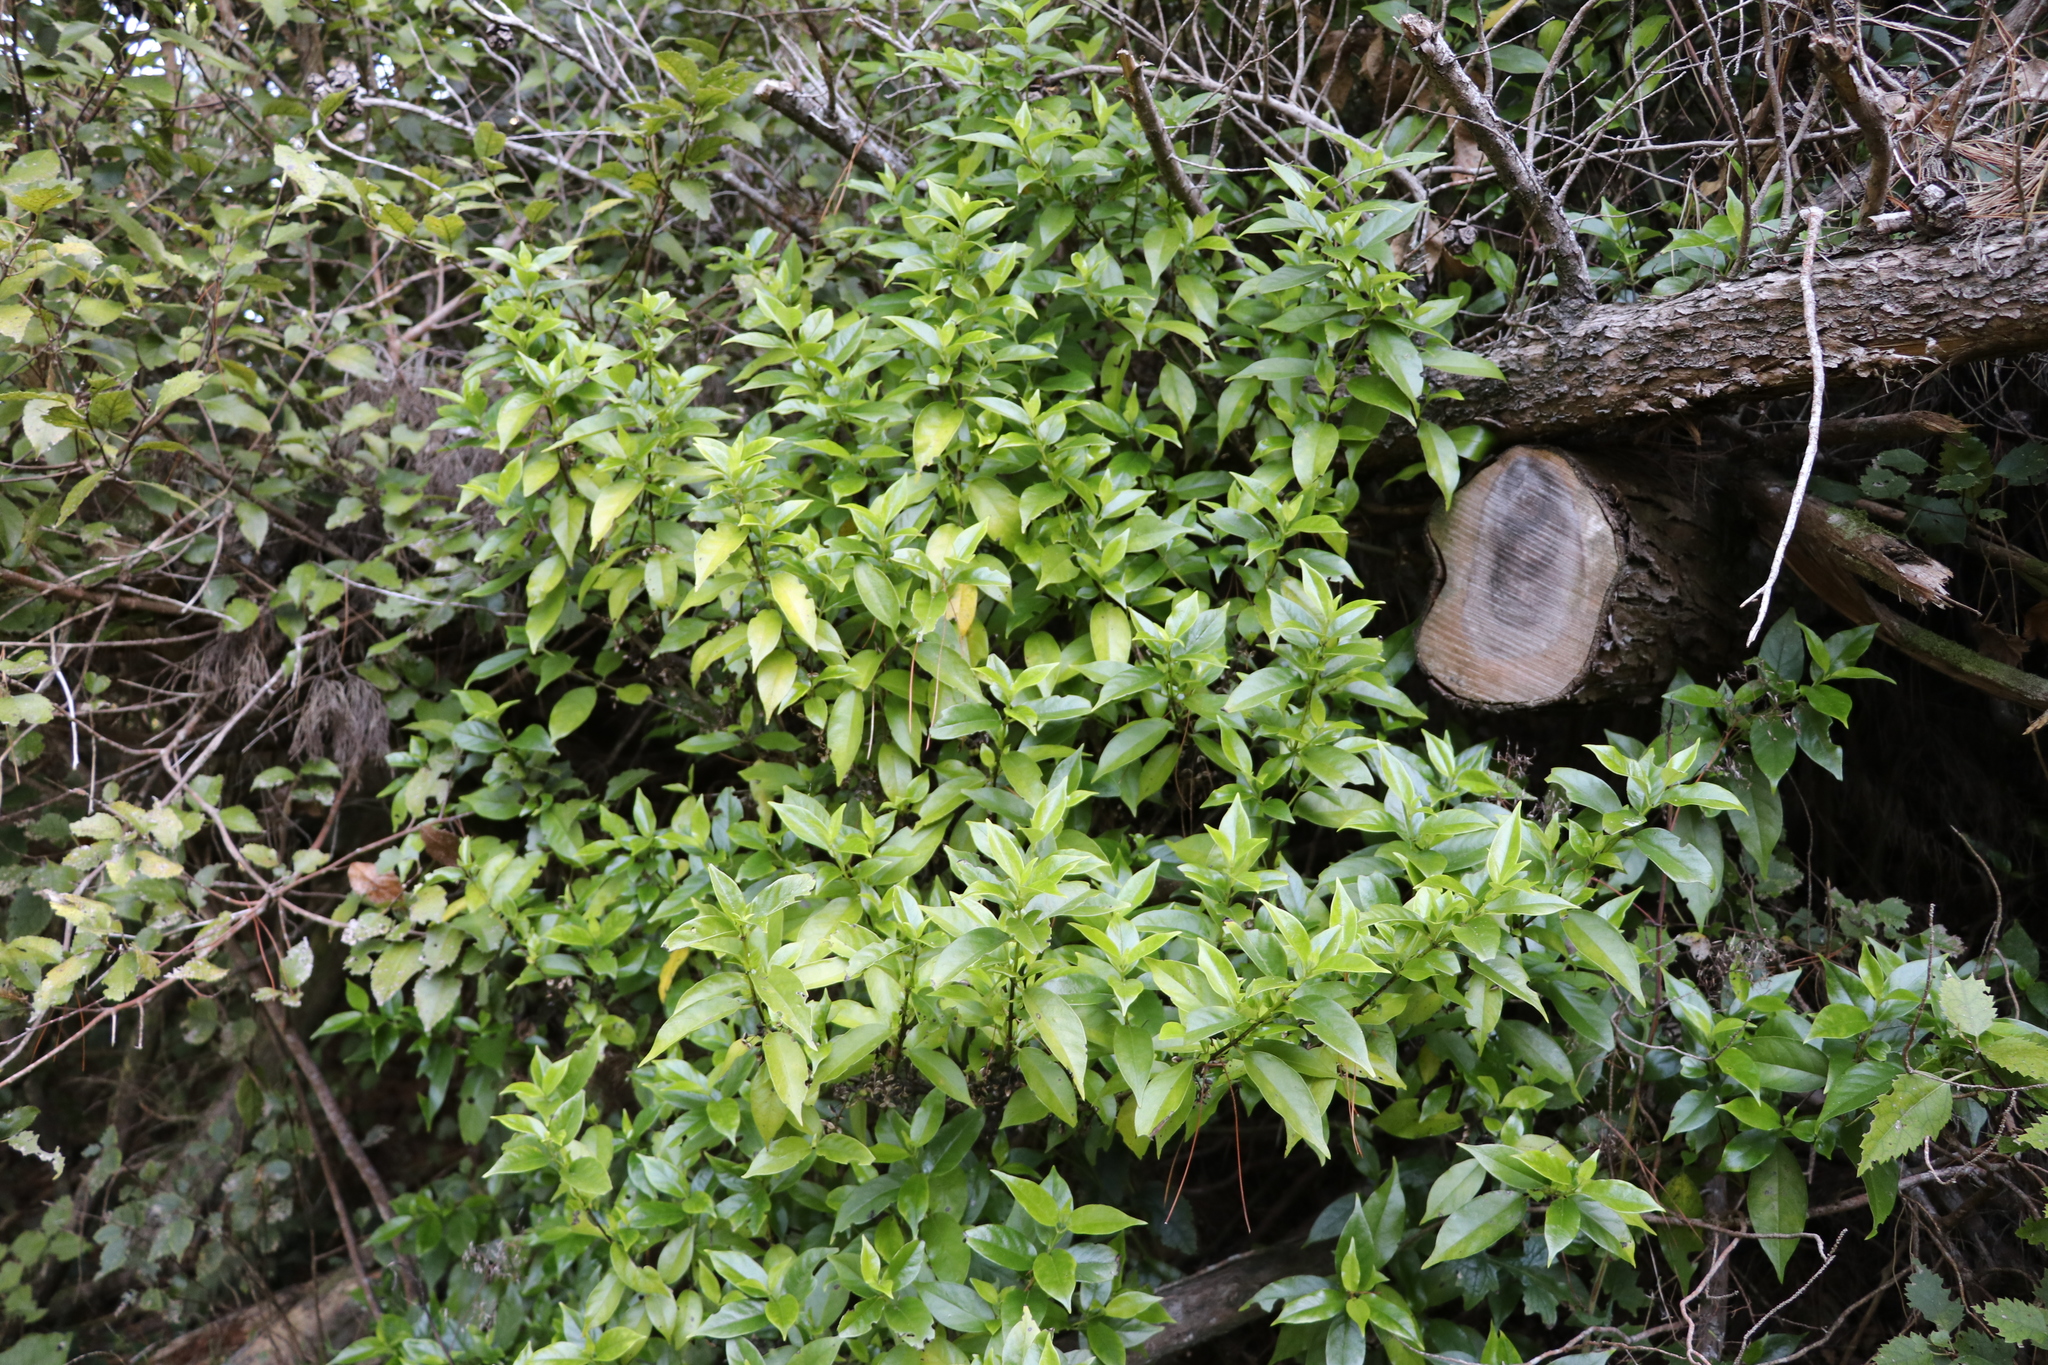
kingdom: Plantae
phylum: Tracheophyta
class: Magnoliopsida
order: Gentianales
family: Loganiaceae
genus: Geniostoma
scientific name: Geniostoma ligustrifolium
